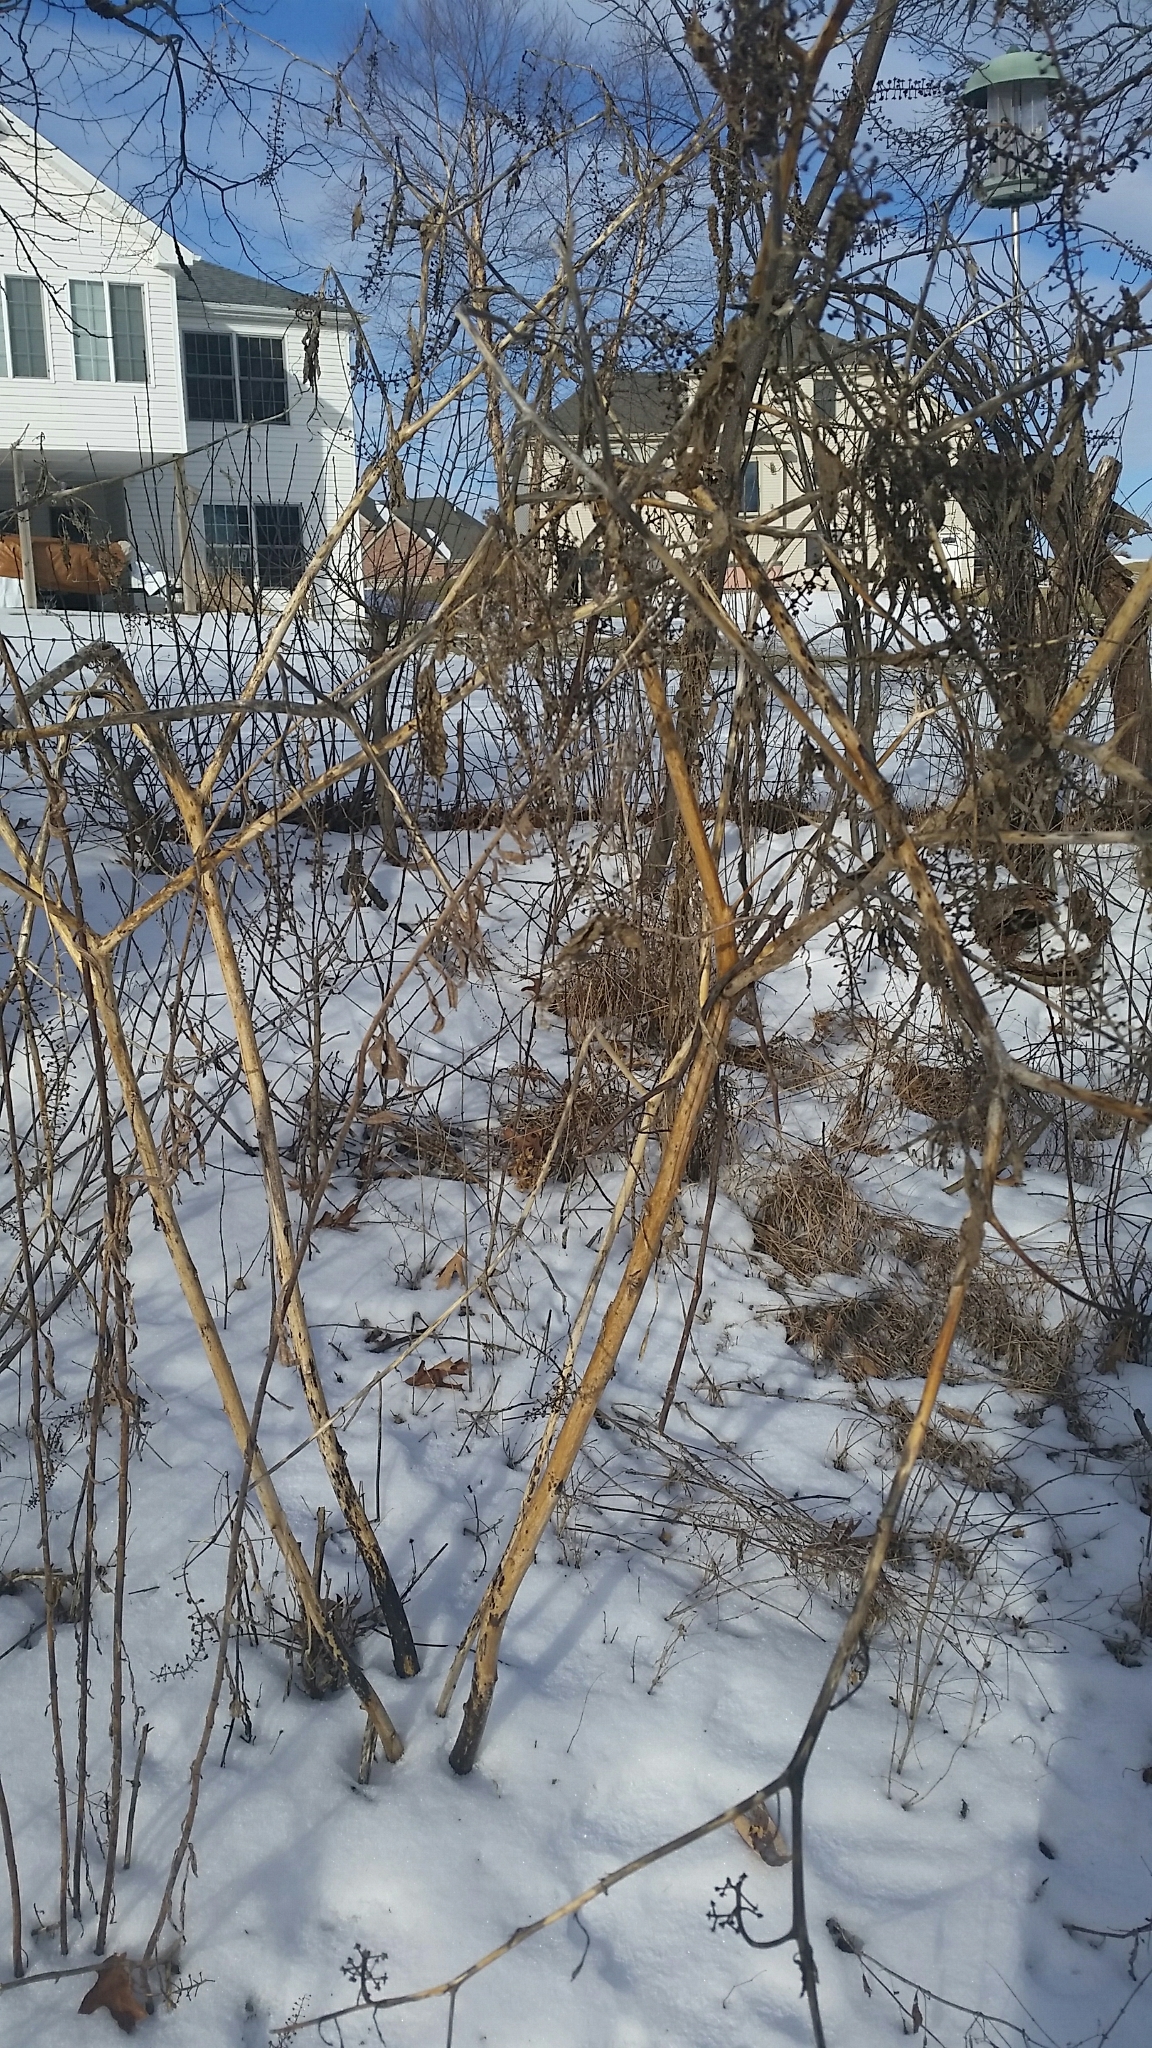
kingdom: Plantae
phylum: Tracheophyta
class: Magnoliopsida
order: Caryophyllales
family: Phytolaccaceae
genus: Phytolacca
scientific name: Phytolacca americana
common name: American pokeweed
